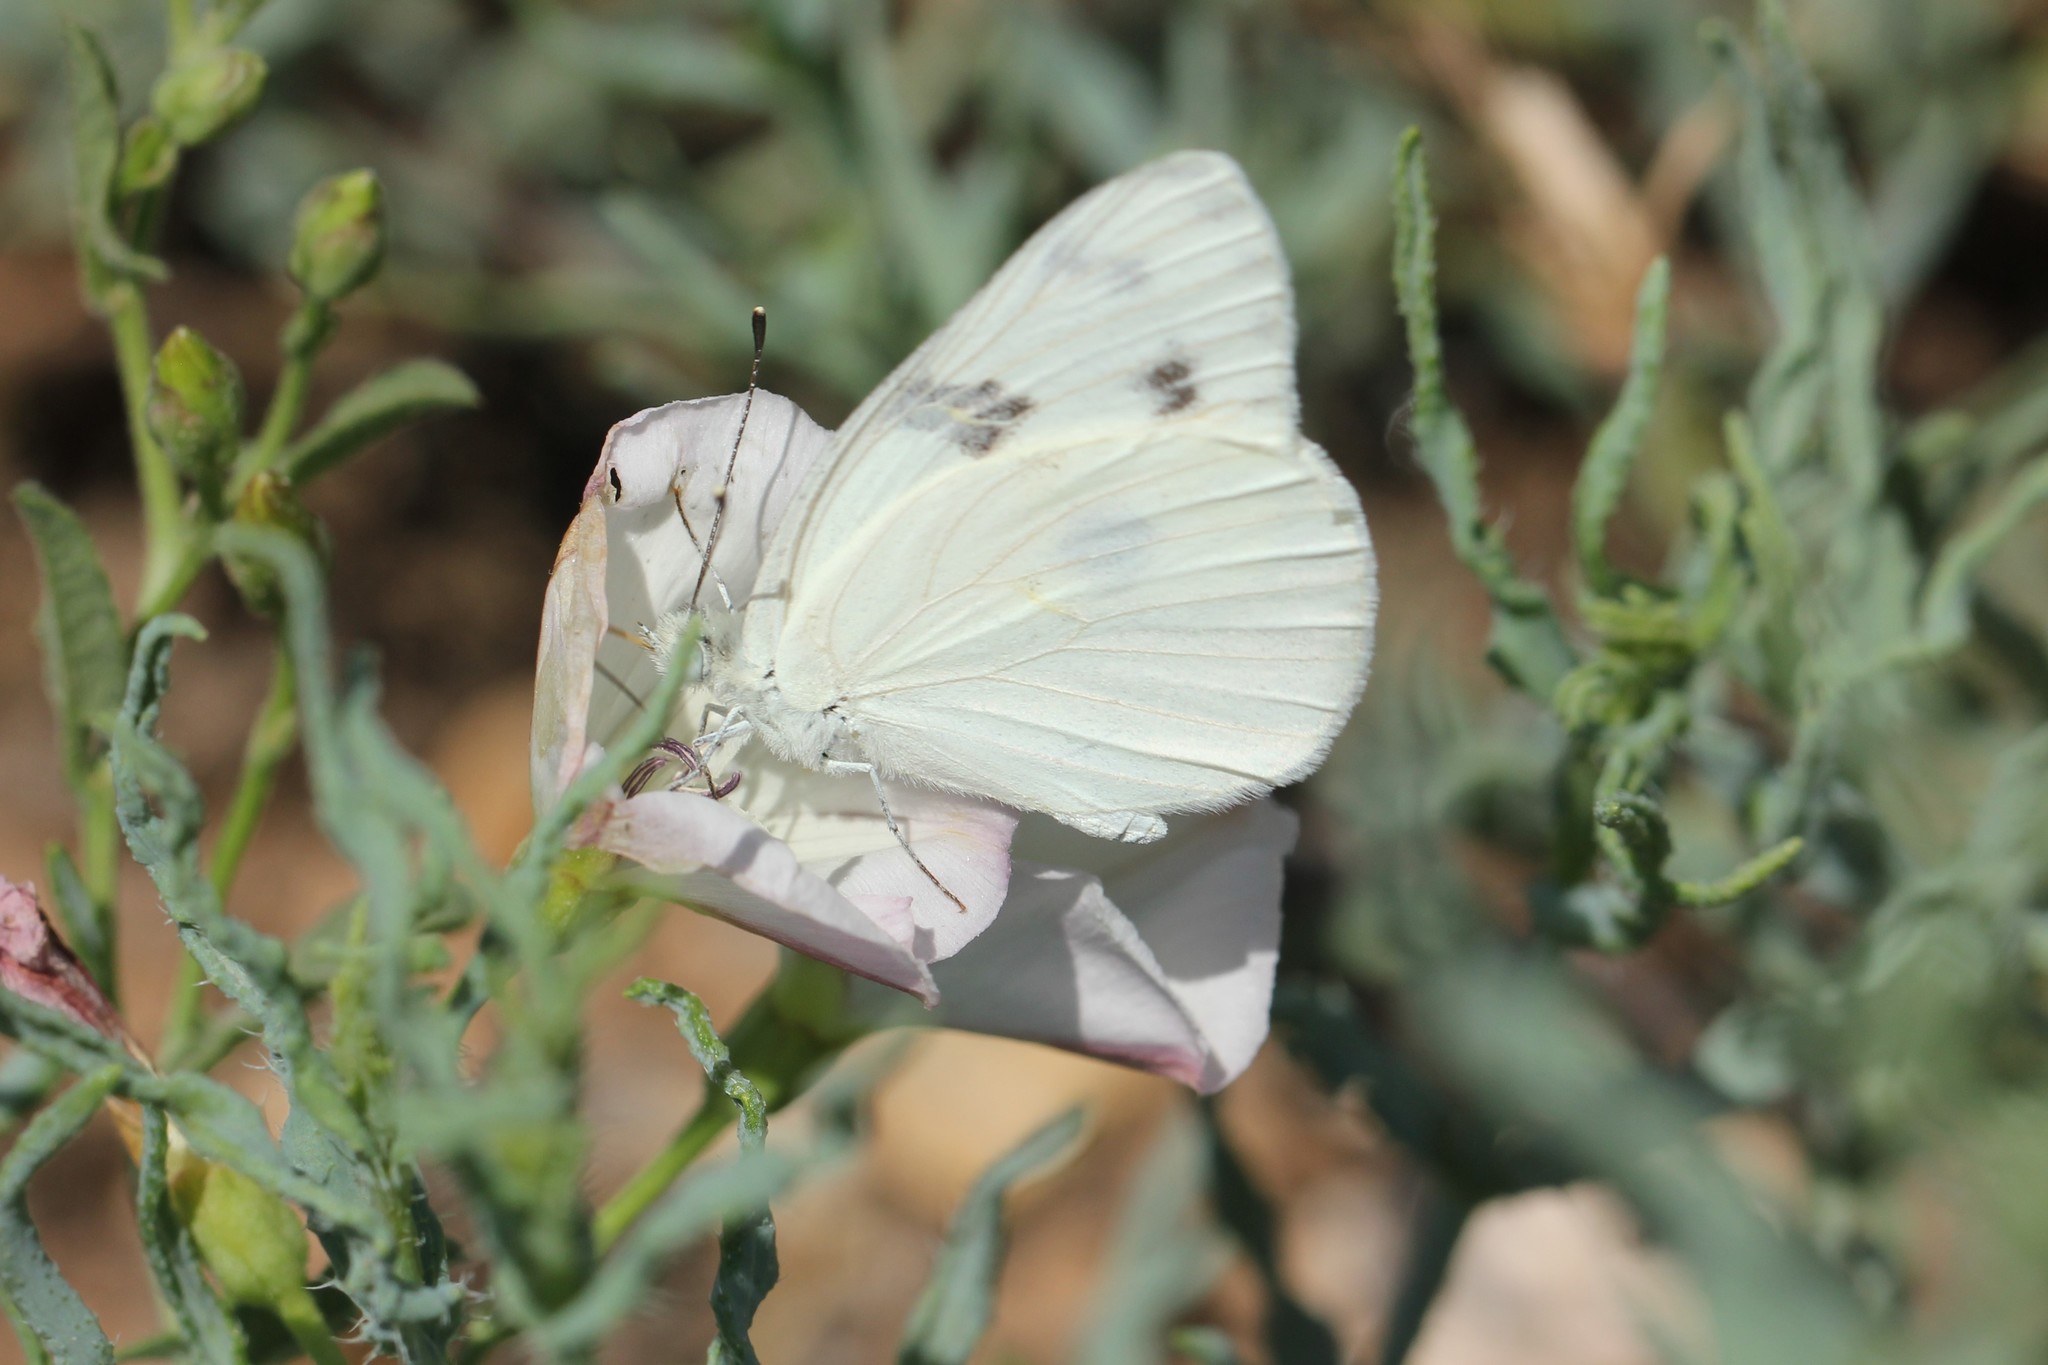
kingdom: Animalia
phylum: Arthropoda
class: Insecta
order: Lepidoptera
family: Pieridae
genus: Pontia
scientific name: Pontia protodice
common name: Checkered white
